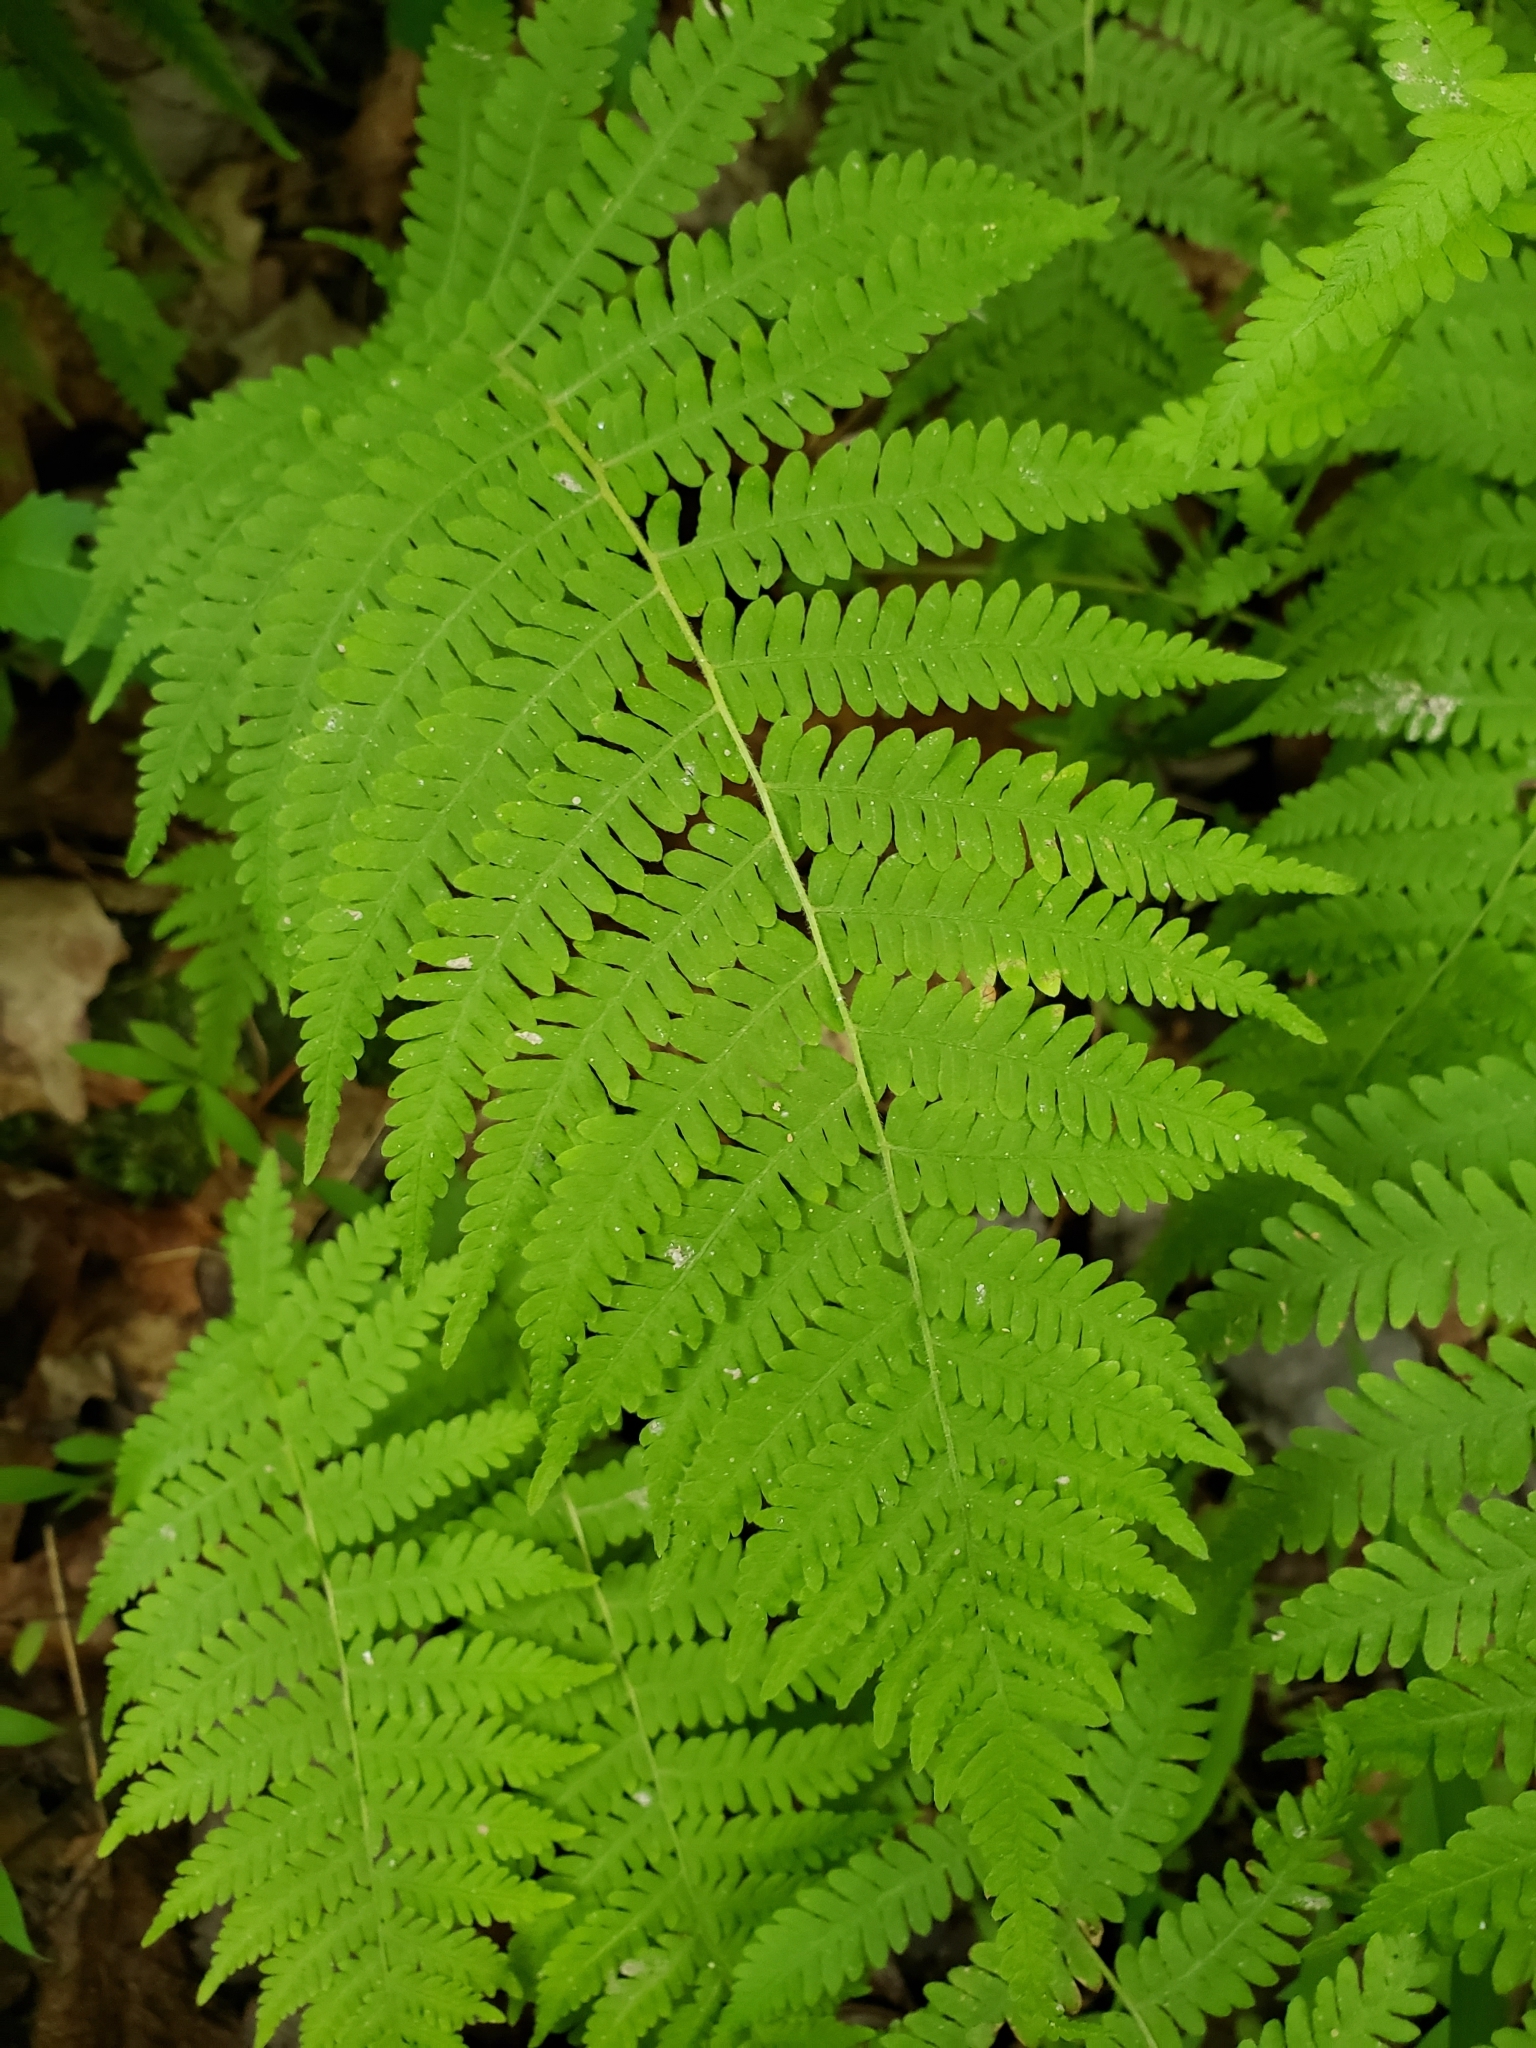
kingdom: Plantae
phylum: Tracheophyta
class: Polypodiopsida
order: Polypodiales
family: Thelypteridaceae
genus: Amauropelta
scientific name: Amauropelta noveboracensis
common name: New york fern
